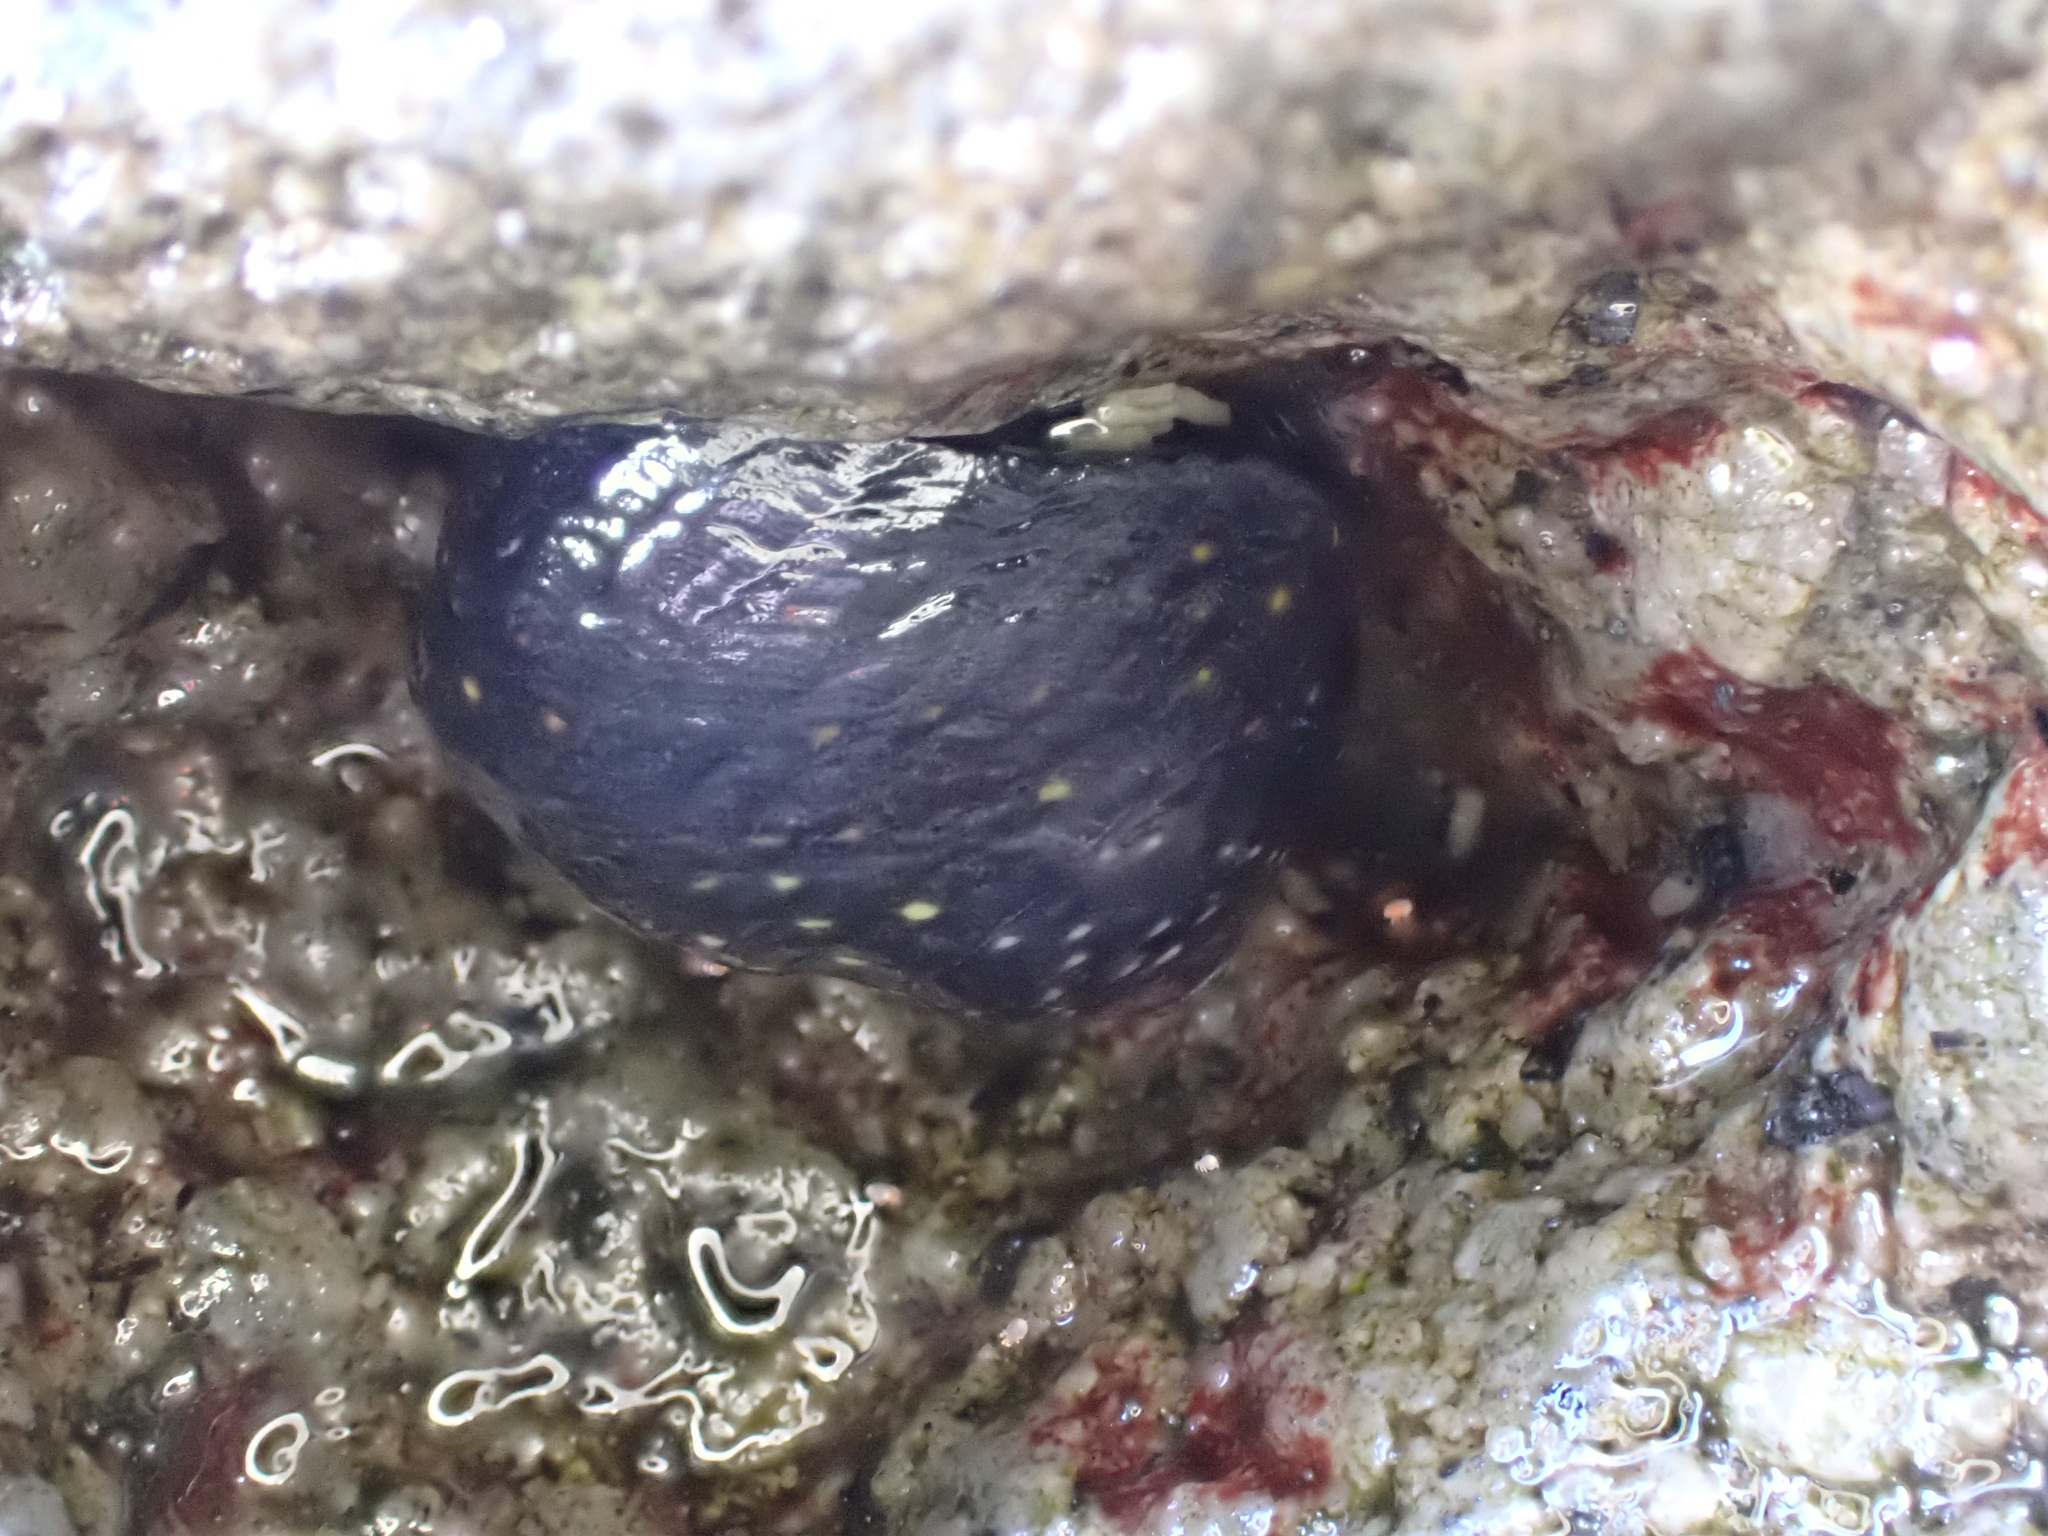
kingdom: Animalia
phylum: Mollusca
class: Gastropoda
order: Trochida
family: Trochidae
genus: Diloma
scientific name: Diloma aridum
